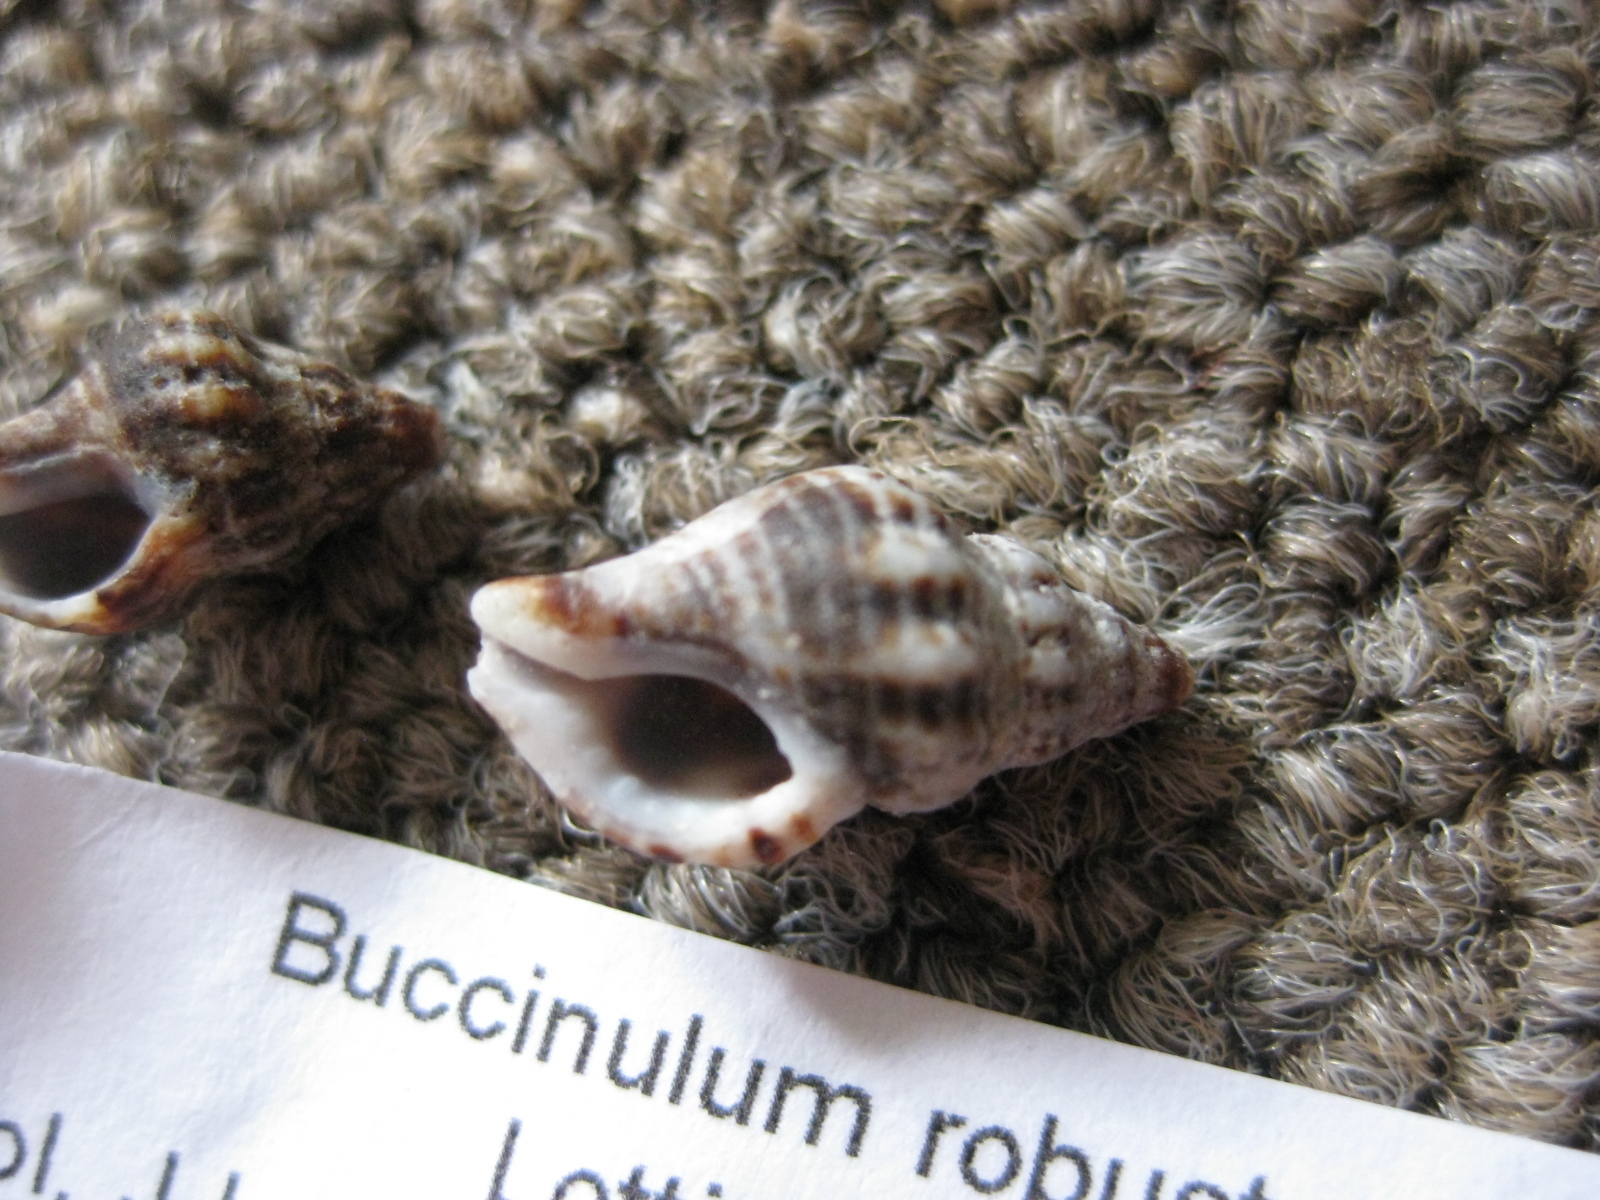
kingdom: Animalia
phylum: Mollusca
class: Gastropoda
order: Neogastropoda
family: Tudiclidae
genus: Buccinulum
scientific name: Buccinulum robustum
